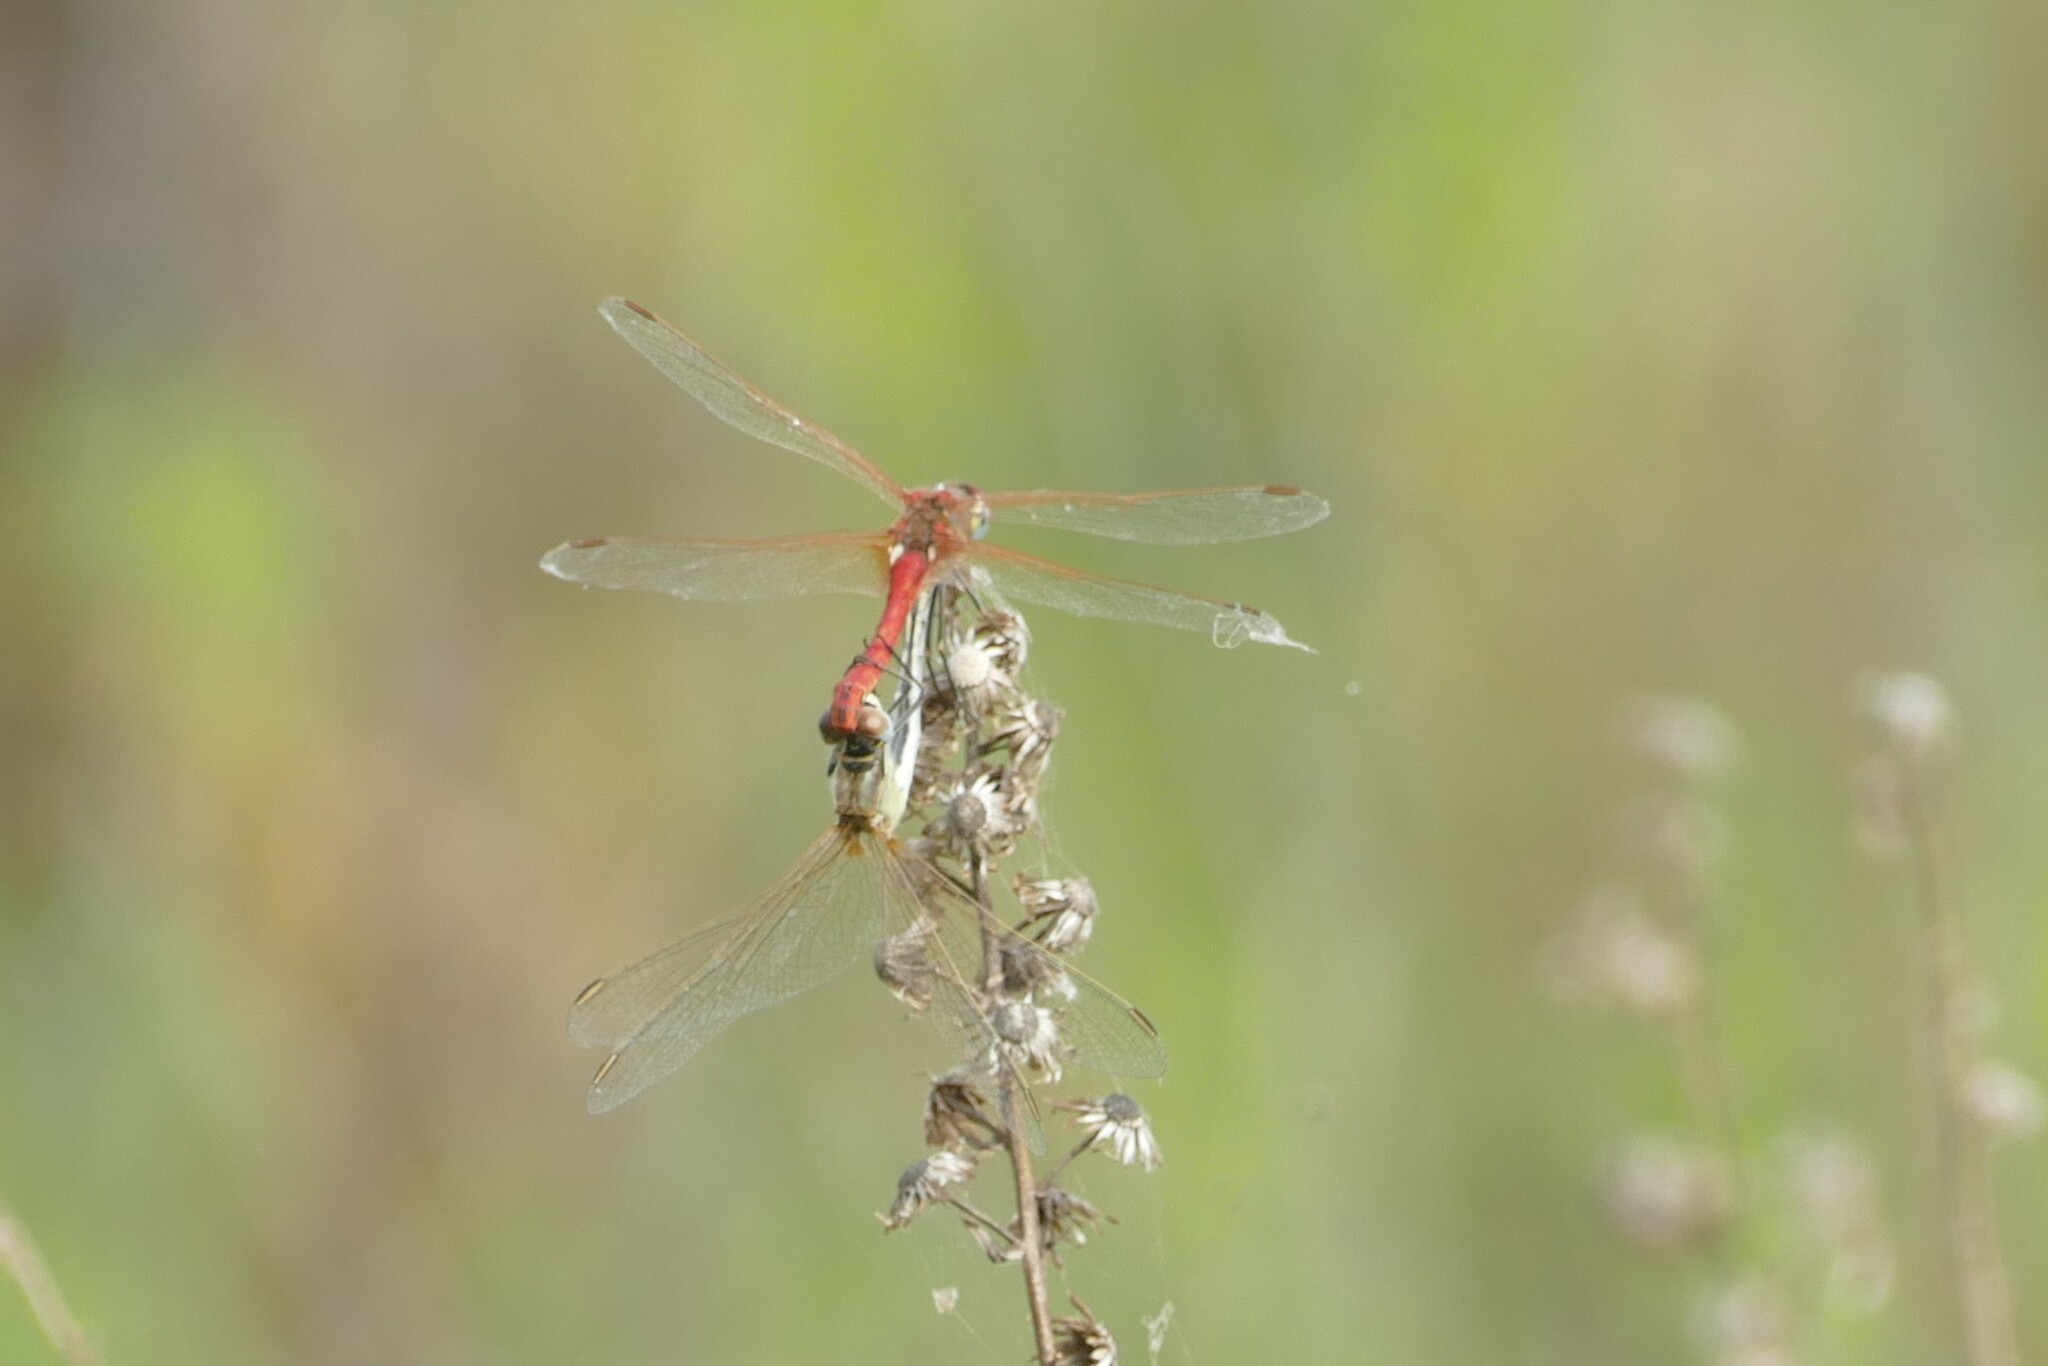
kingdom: Animalia
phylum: Arthropoda
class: Insecta
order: Odonata
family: Libellulidae
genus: Sympetrum
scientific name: Sympetrum fonscolombii
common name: Red-veined darter
